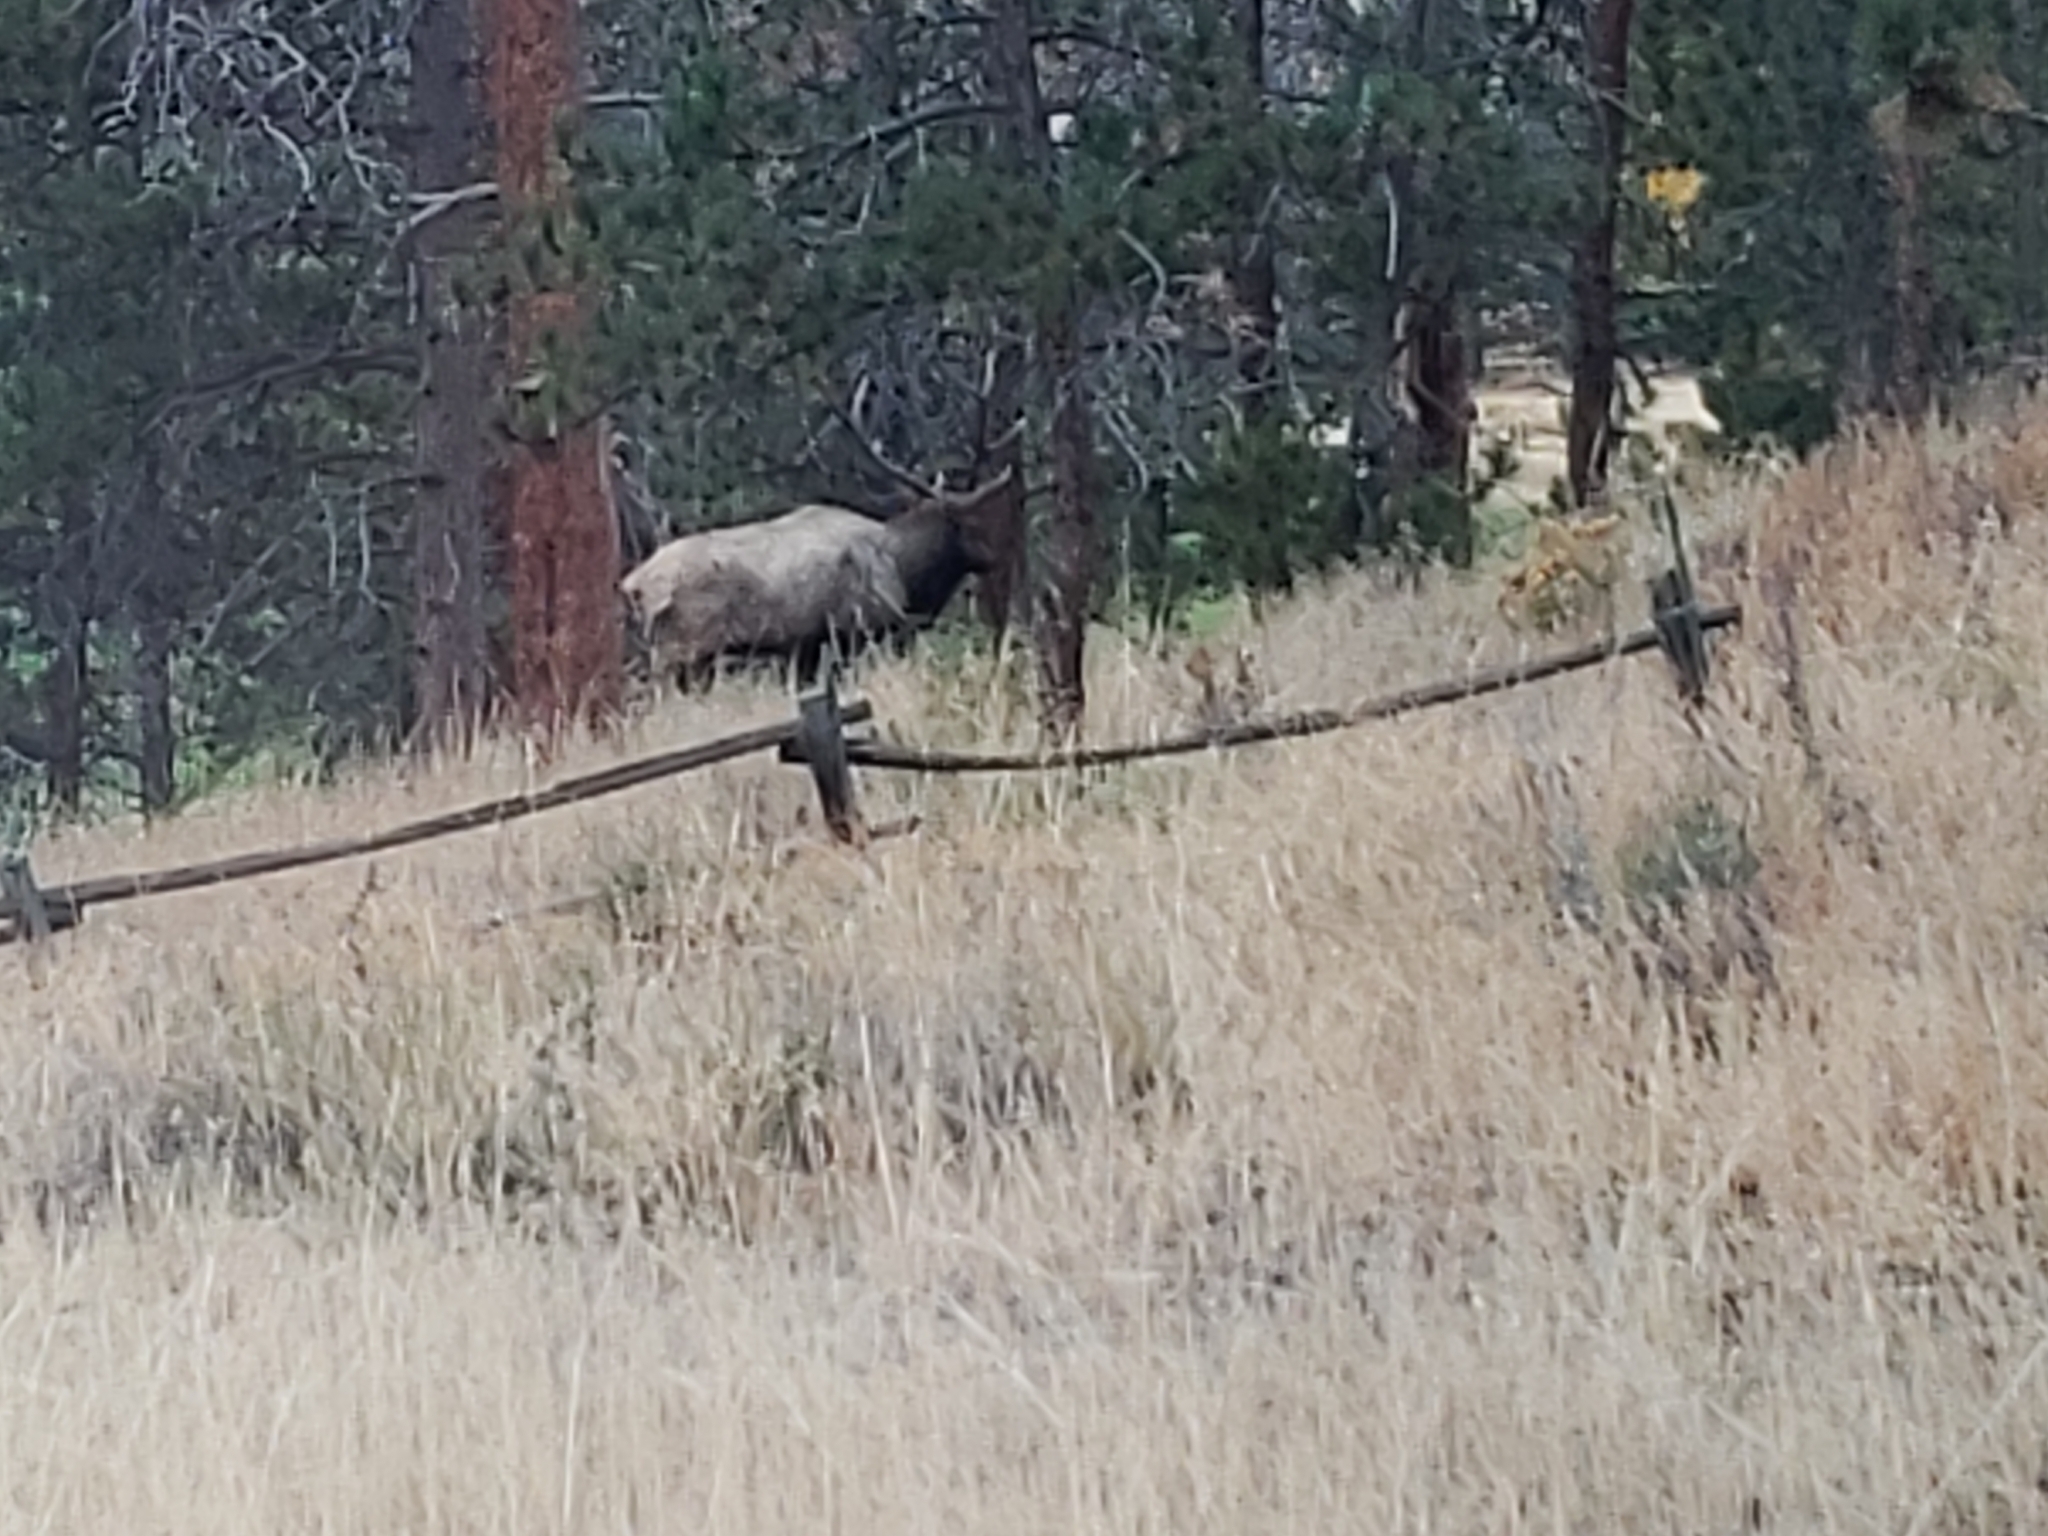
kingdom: Animalia
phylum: Chordata
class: Mammalia
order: Artiodactyla
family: Cervidae
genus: Cervus
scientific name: Cervus elaphus
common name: Red deer
